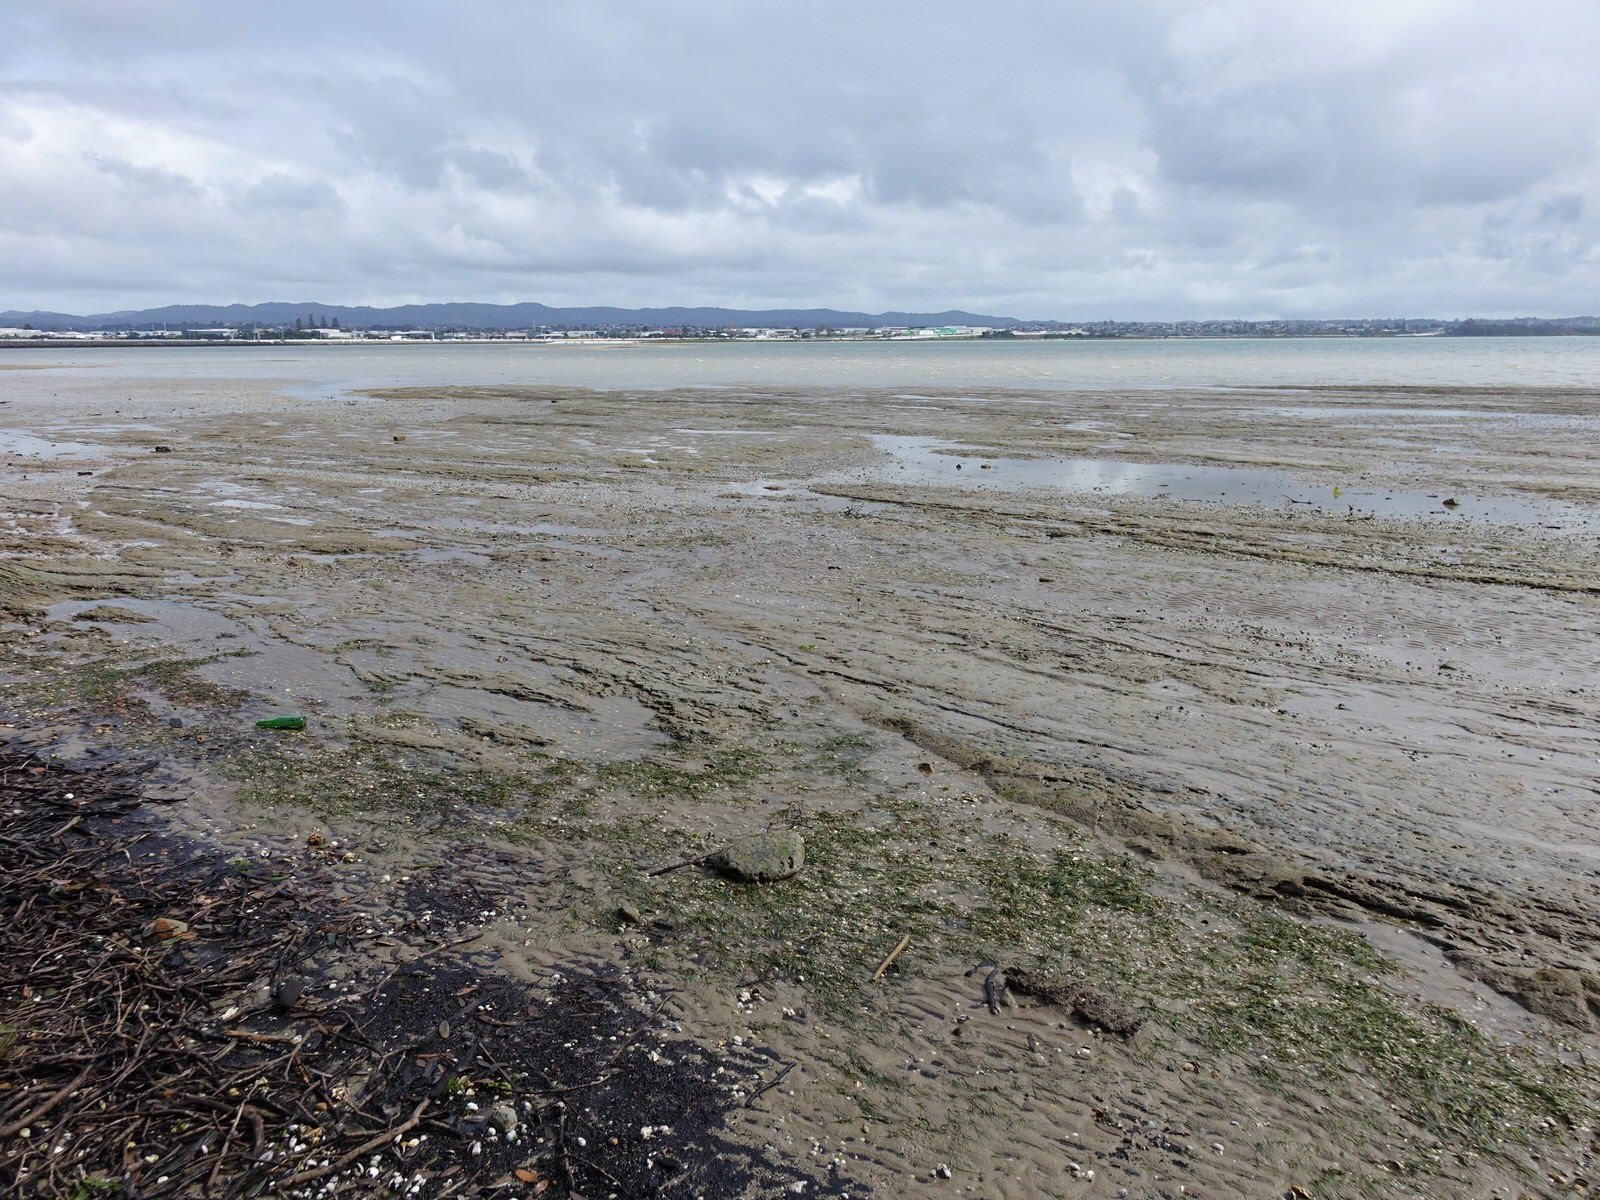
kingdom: Plantae
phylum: Tracheophyta
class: Liliopsida
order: Alismatales
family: Zosteraceae
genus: Zostera
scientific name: Zostera novazelandica
